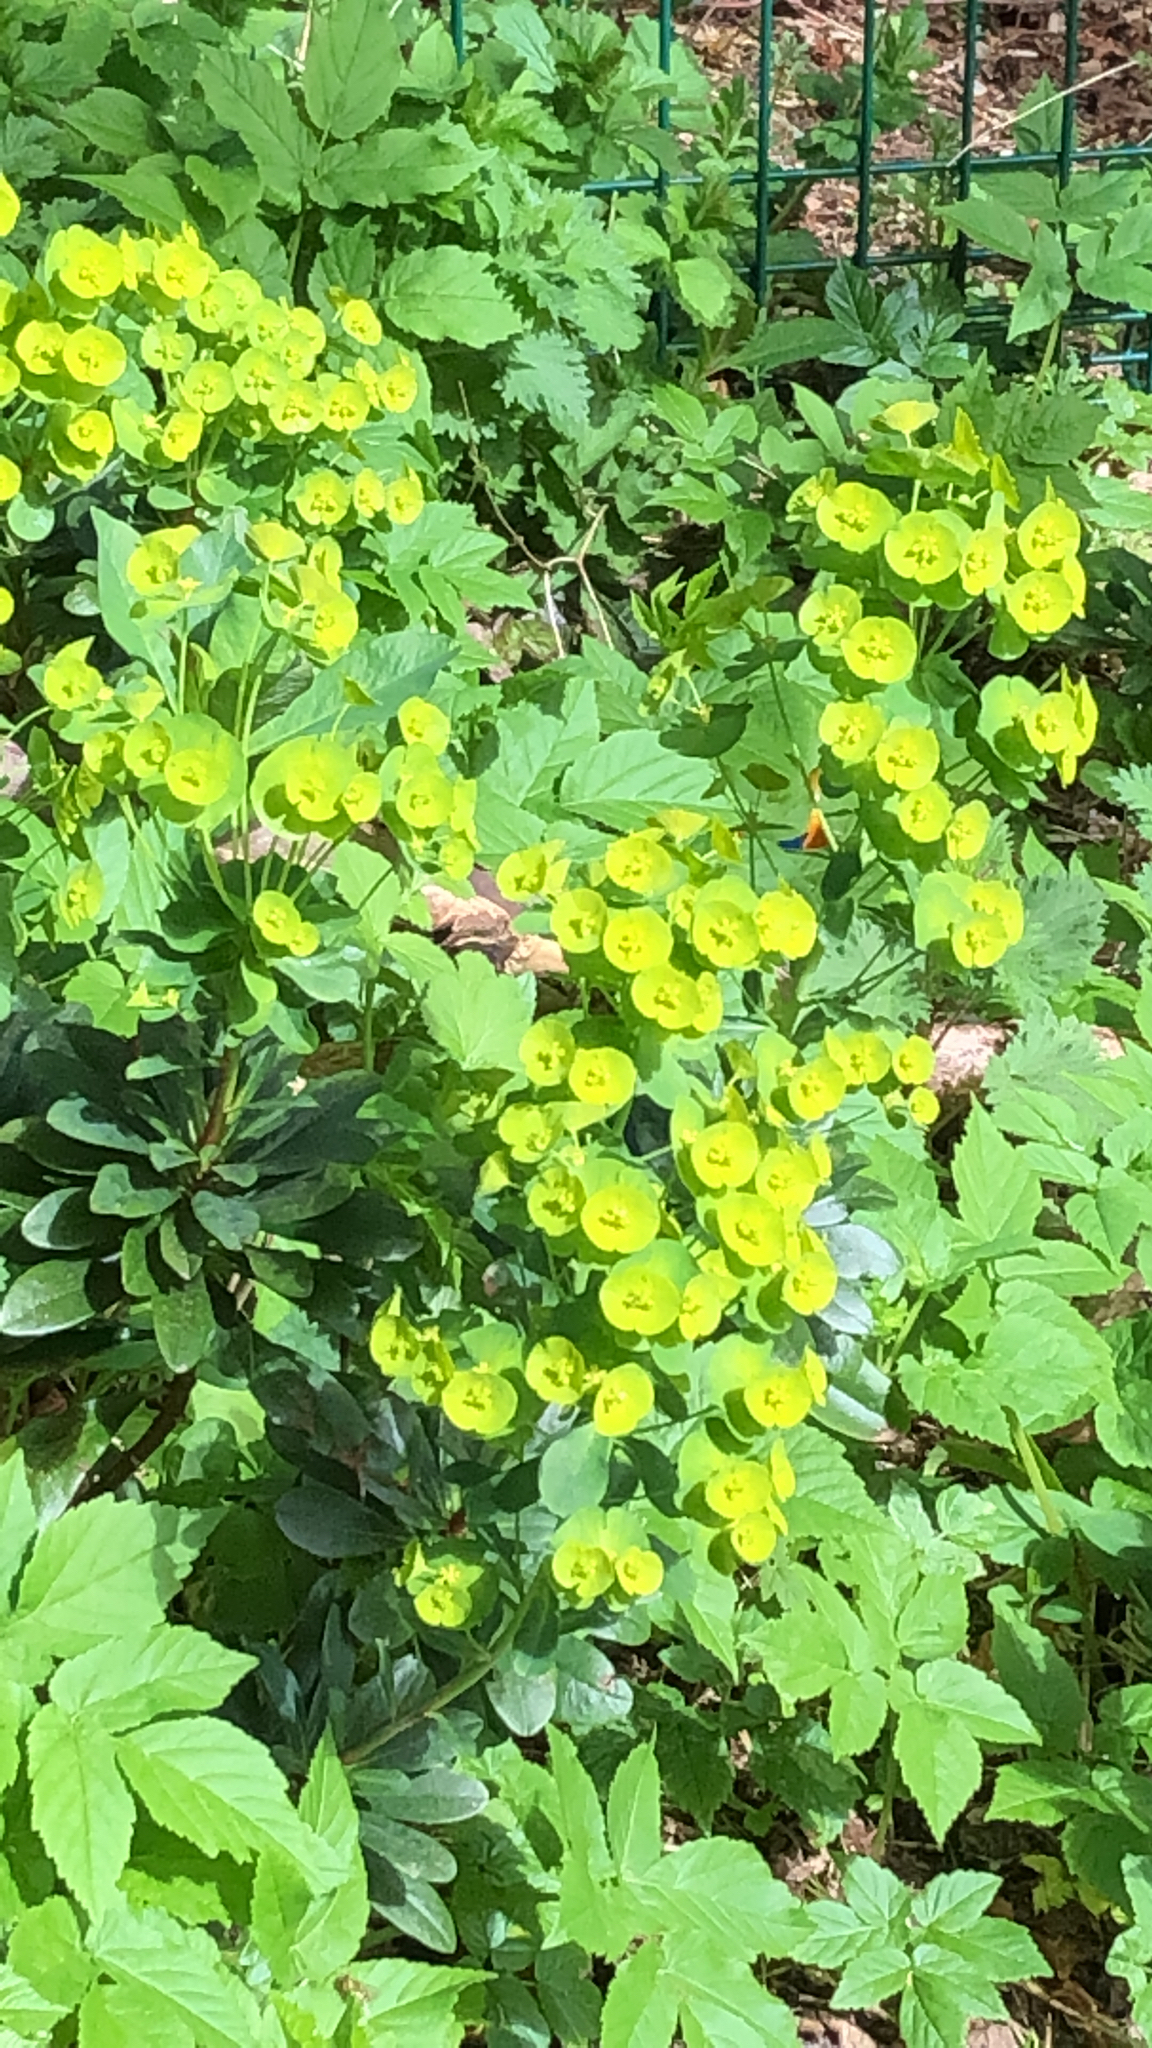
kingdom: Plantae
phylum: Tracheophyta
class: Magnoliopsida
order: Malpighiales
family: Euphorbiaceae
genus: Euphorbia
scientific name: Euphorbia amygdaloides
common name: Wood spurge
